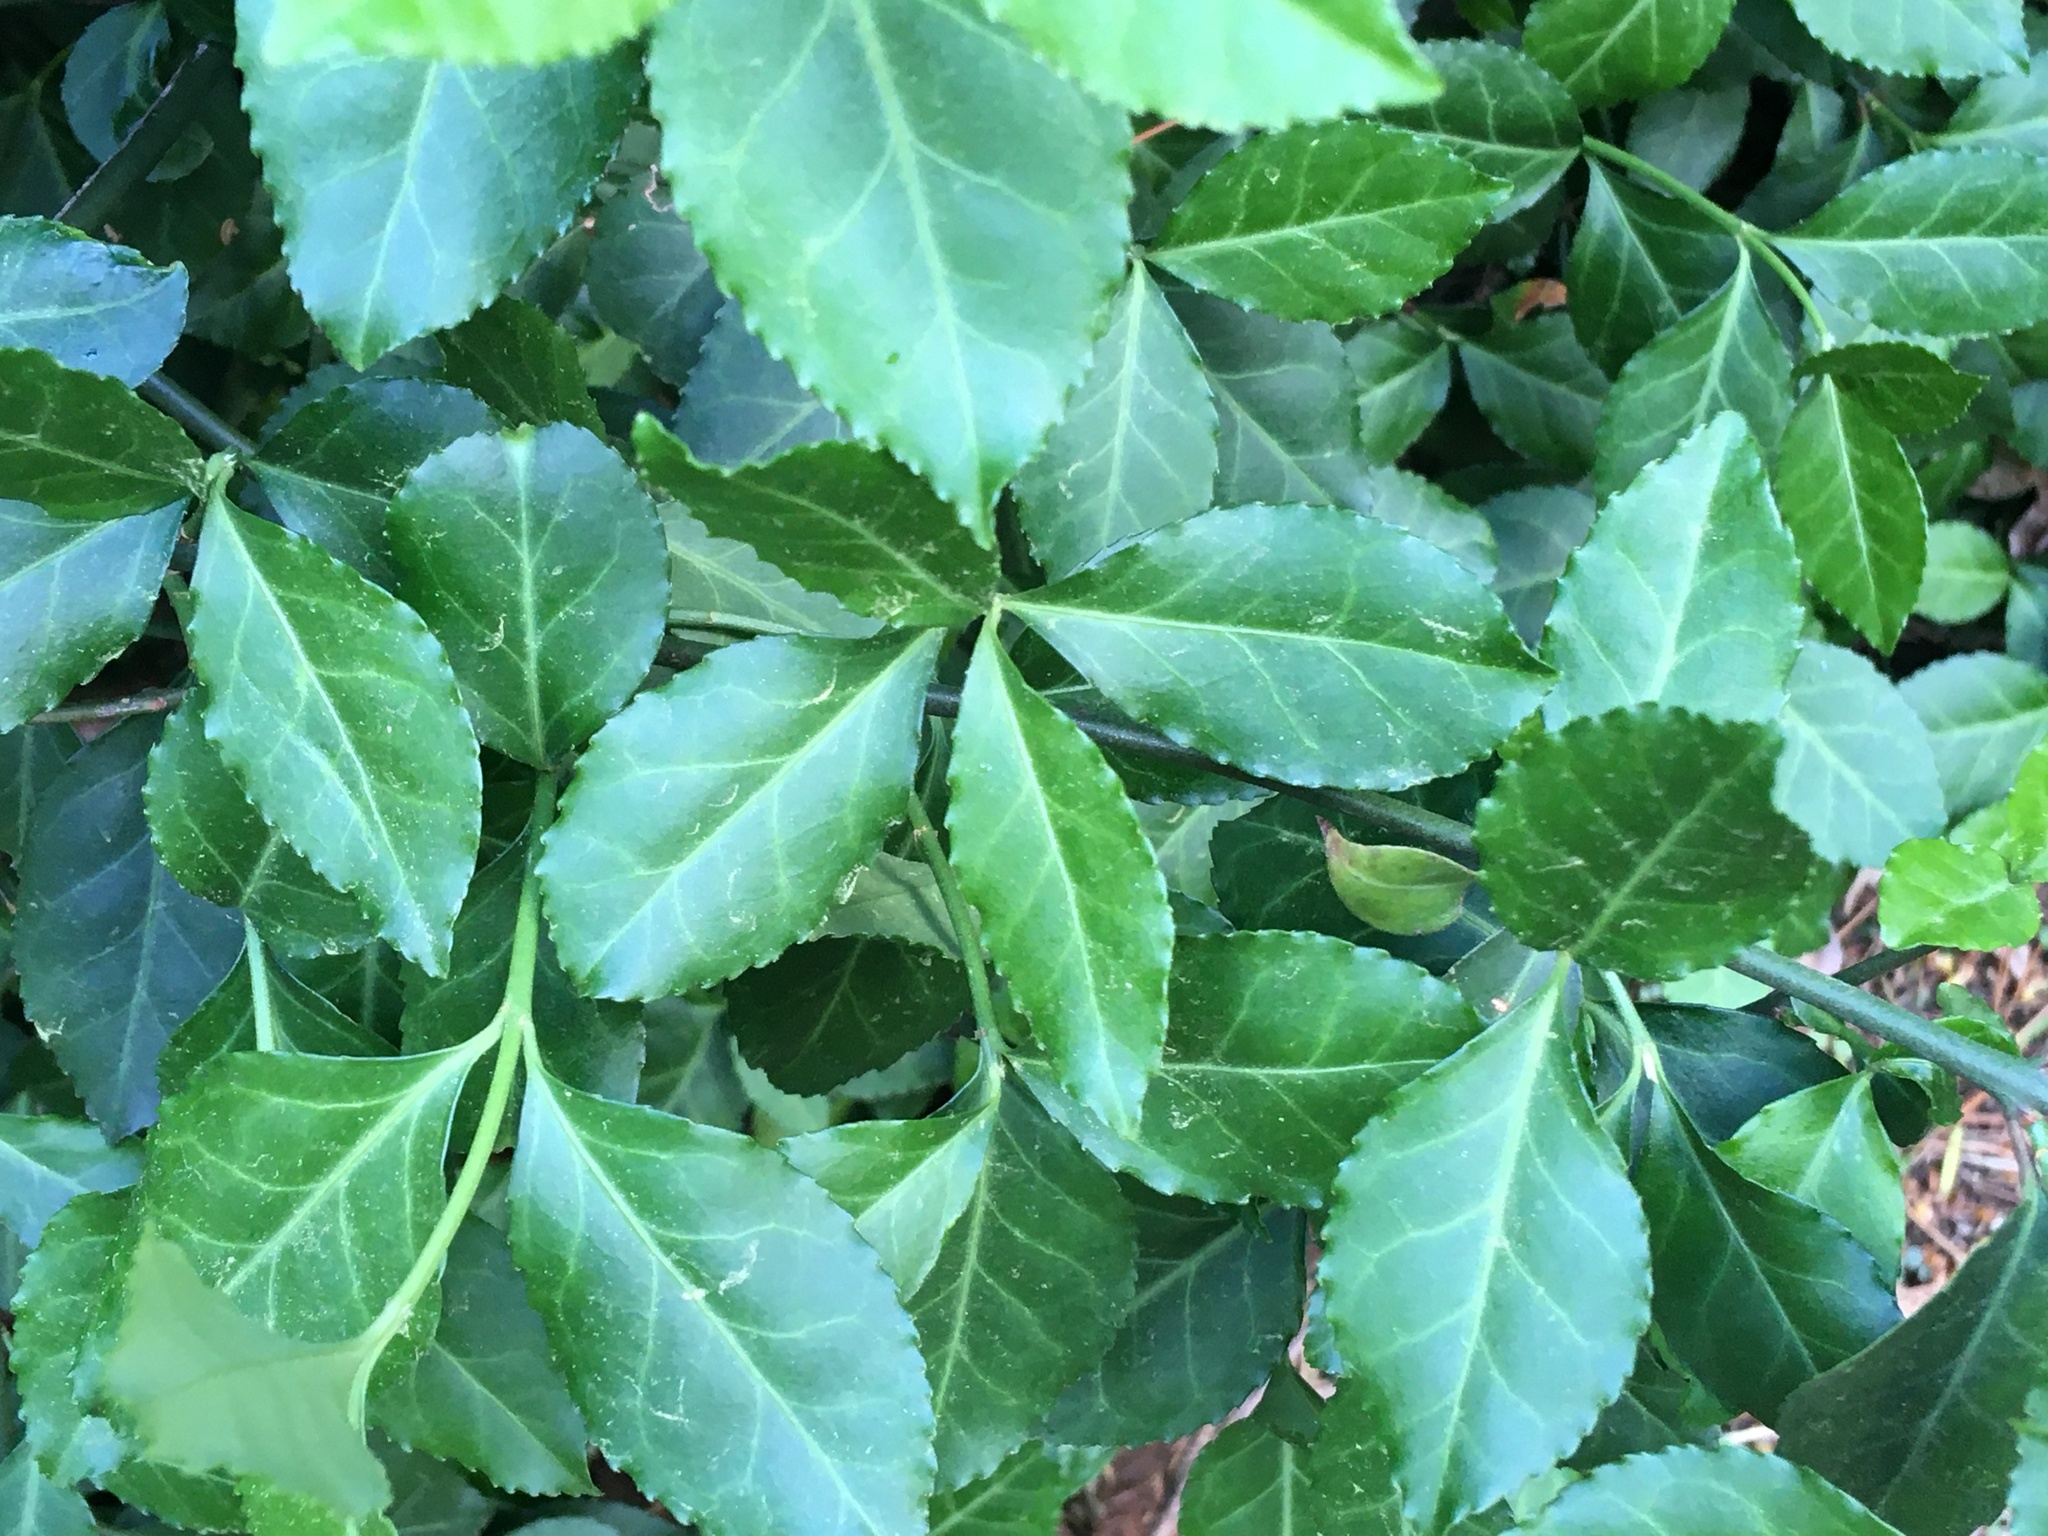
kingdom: Plantae
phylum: Tracheophyta
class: Magnoliopsida
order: Celastrales
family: Celastraceae
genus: Euonymus
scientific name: Euonymus fortunei
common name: Climbing euonymus
